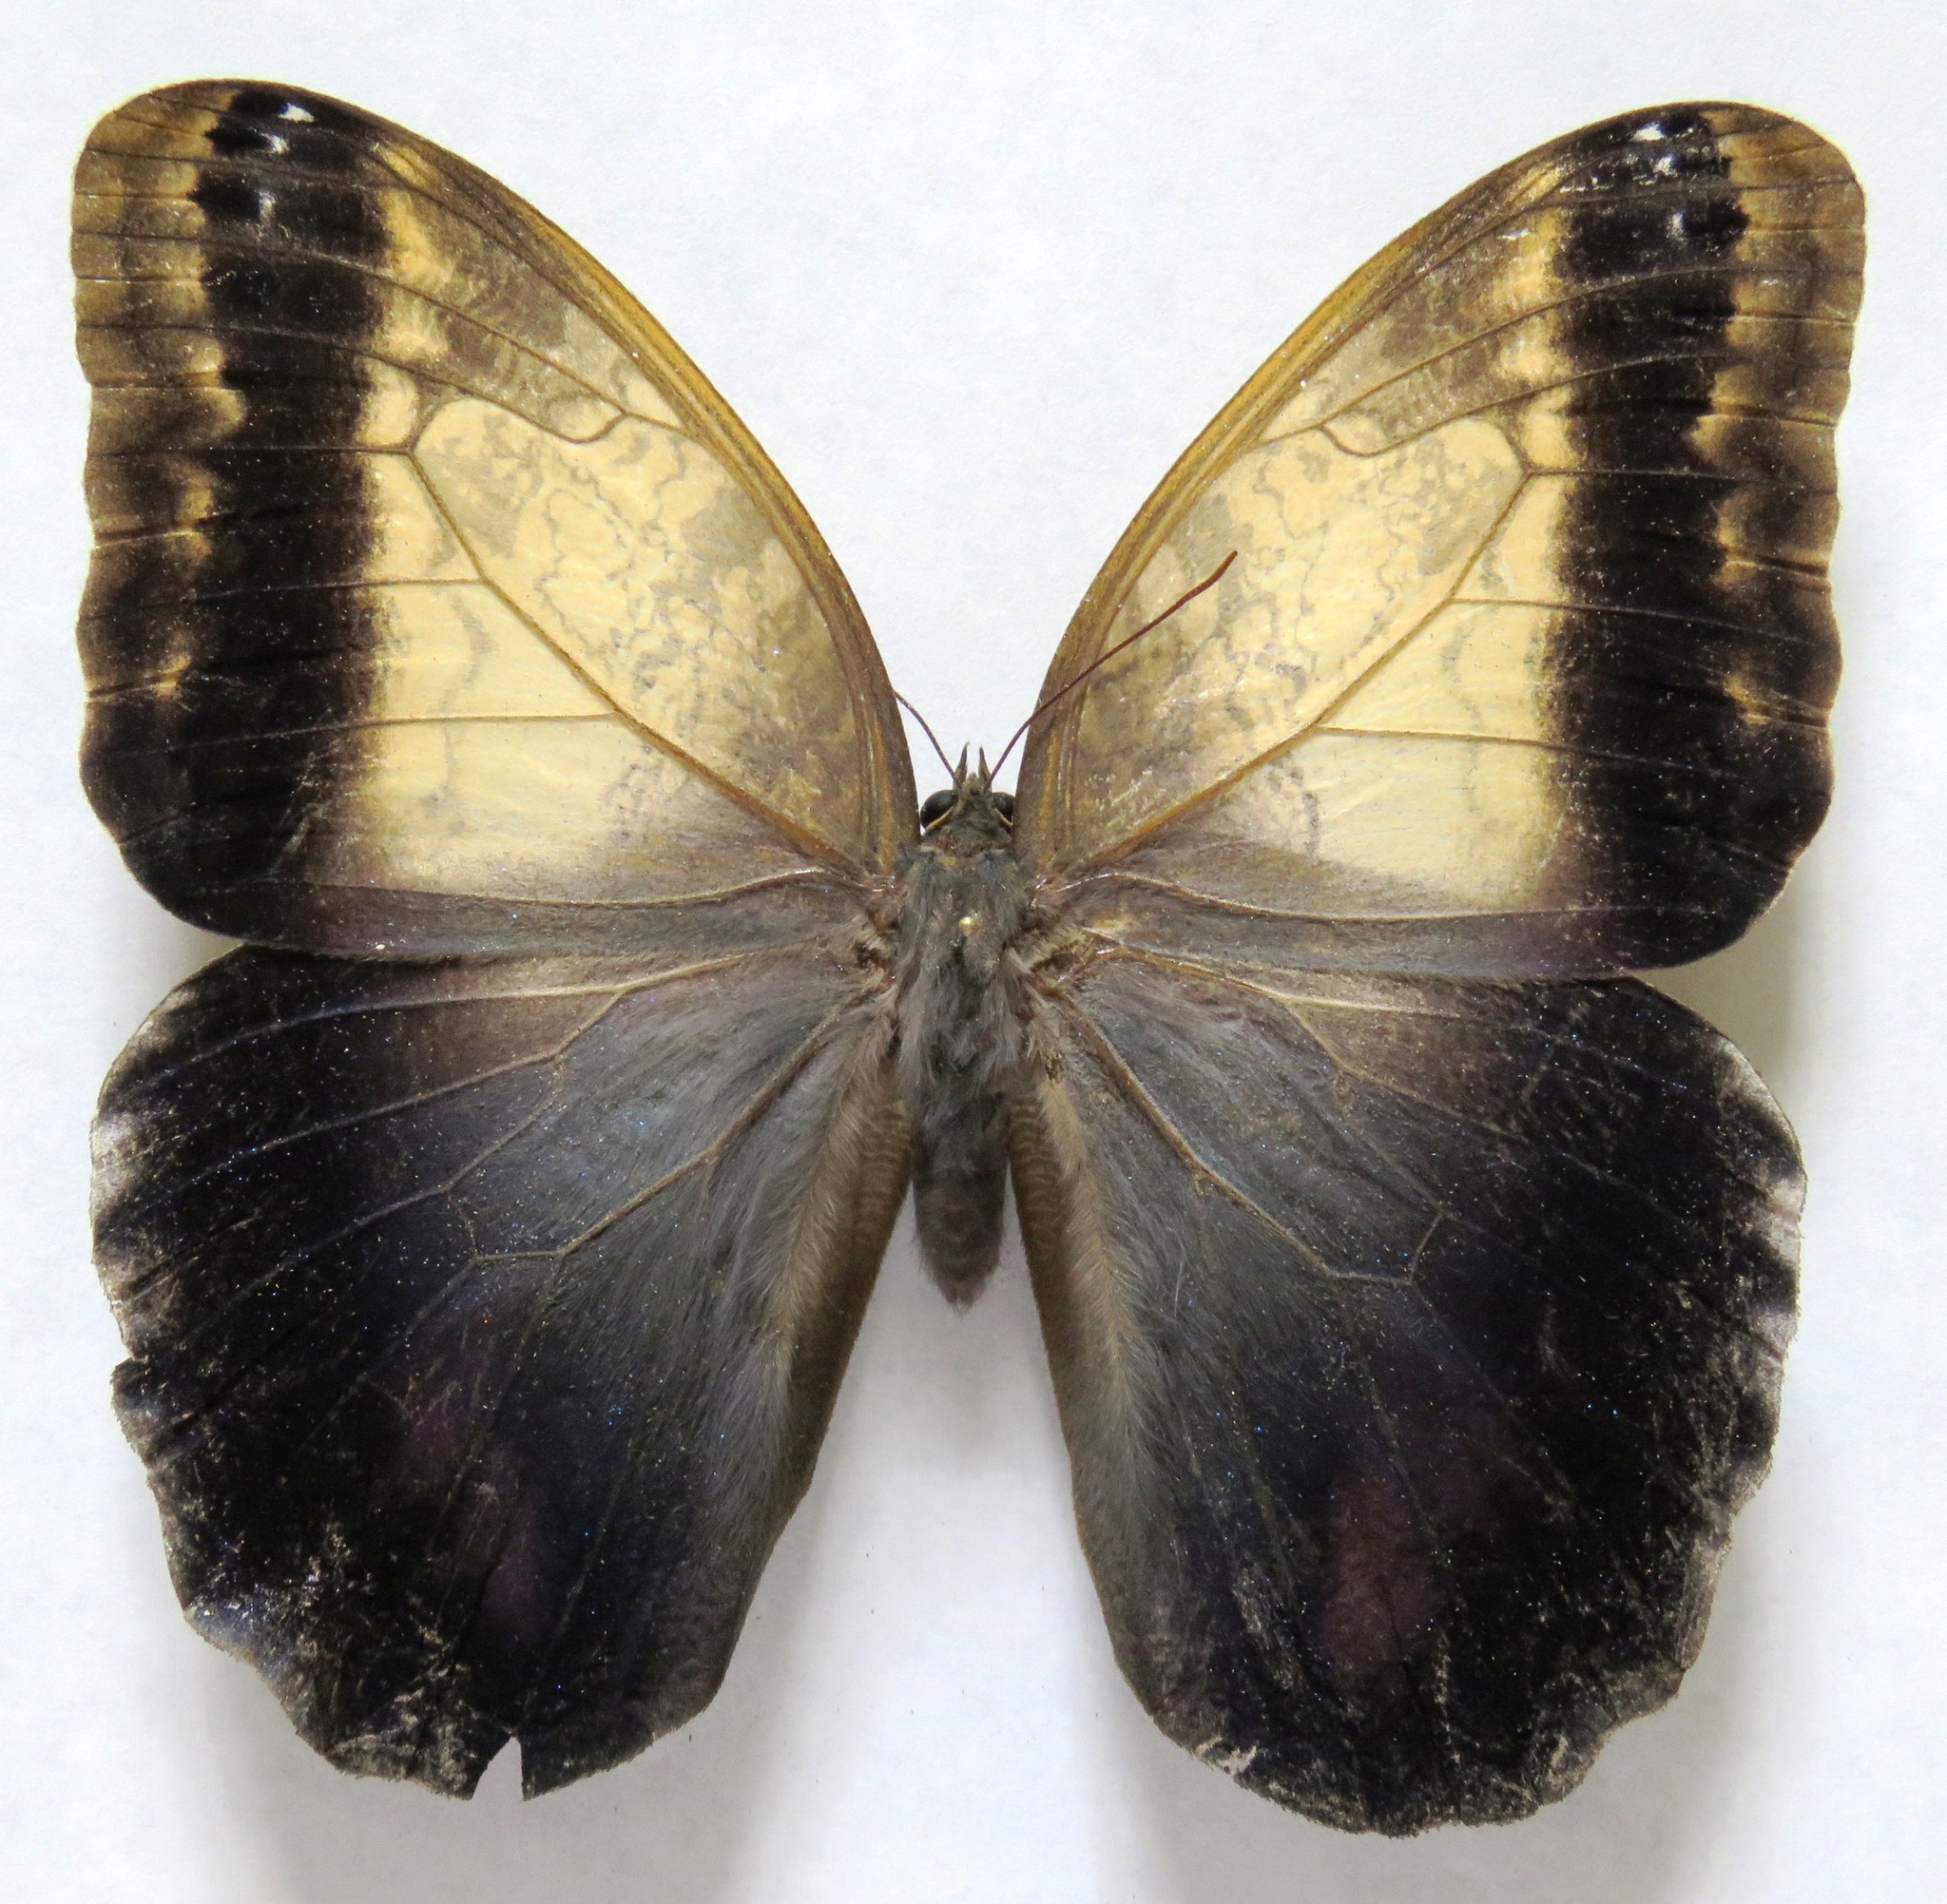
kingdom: Animalia
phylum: Arthropoda
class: Insecta
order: Lepidoptera
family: Nymphalidae
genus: Caligo
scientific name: Caligo telamonius
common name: Pale owl-butterfly
